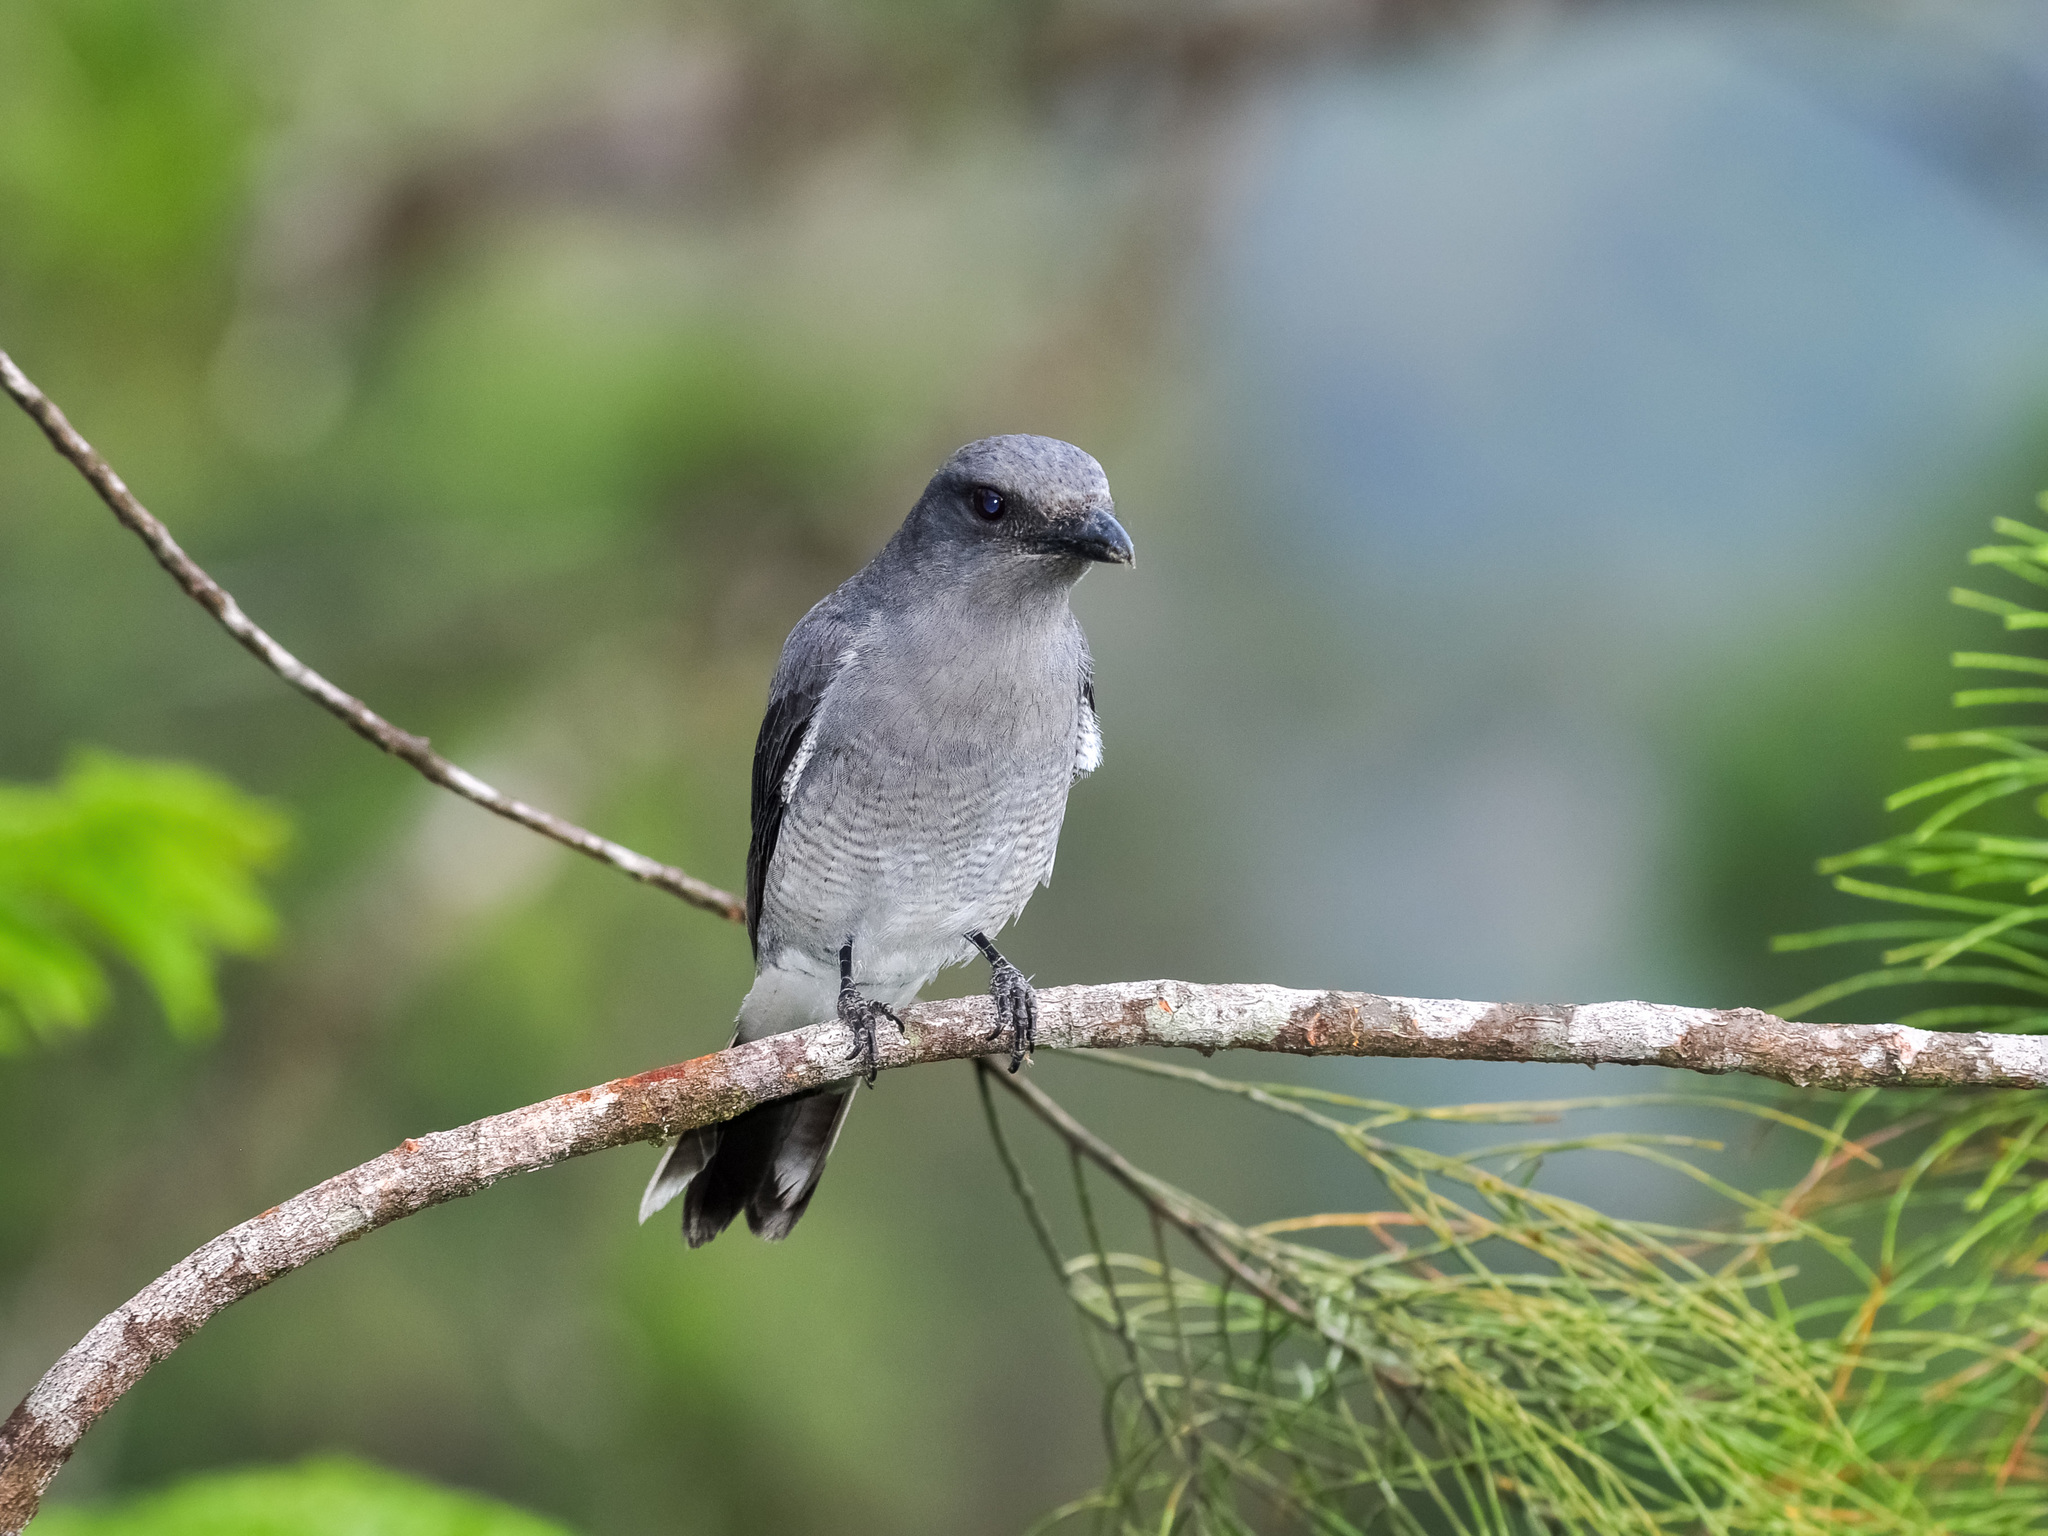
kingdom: Animalia
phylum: Chordata
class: Aves
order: Passeriformes
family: Campephagidae
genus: Coracina
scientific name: Coracina macei
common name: Large cuckooshrike
